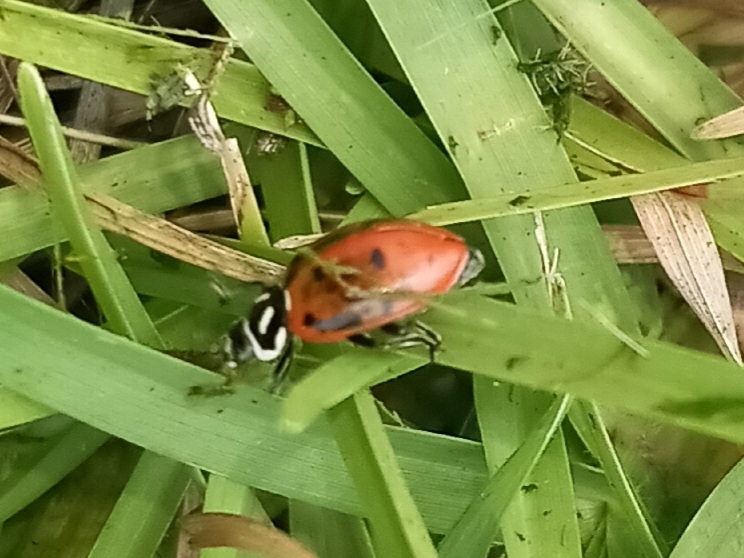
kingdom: Animalia
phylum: Arthropoda
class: Insecta
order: Coleoptera
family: Coccinellidae
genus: Hippodamia
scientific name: Hippodamia convergens
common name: Convergent lady beetle
